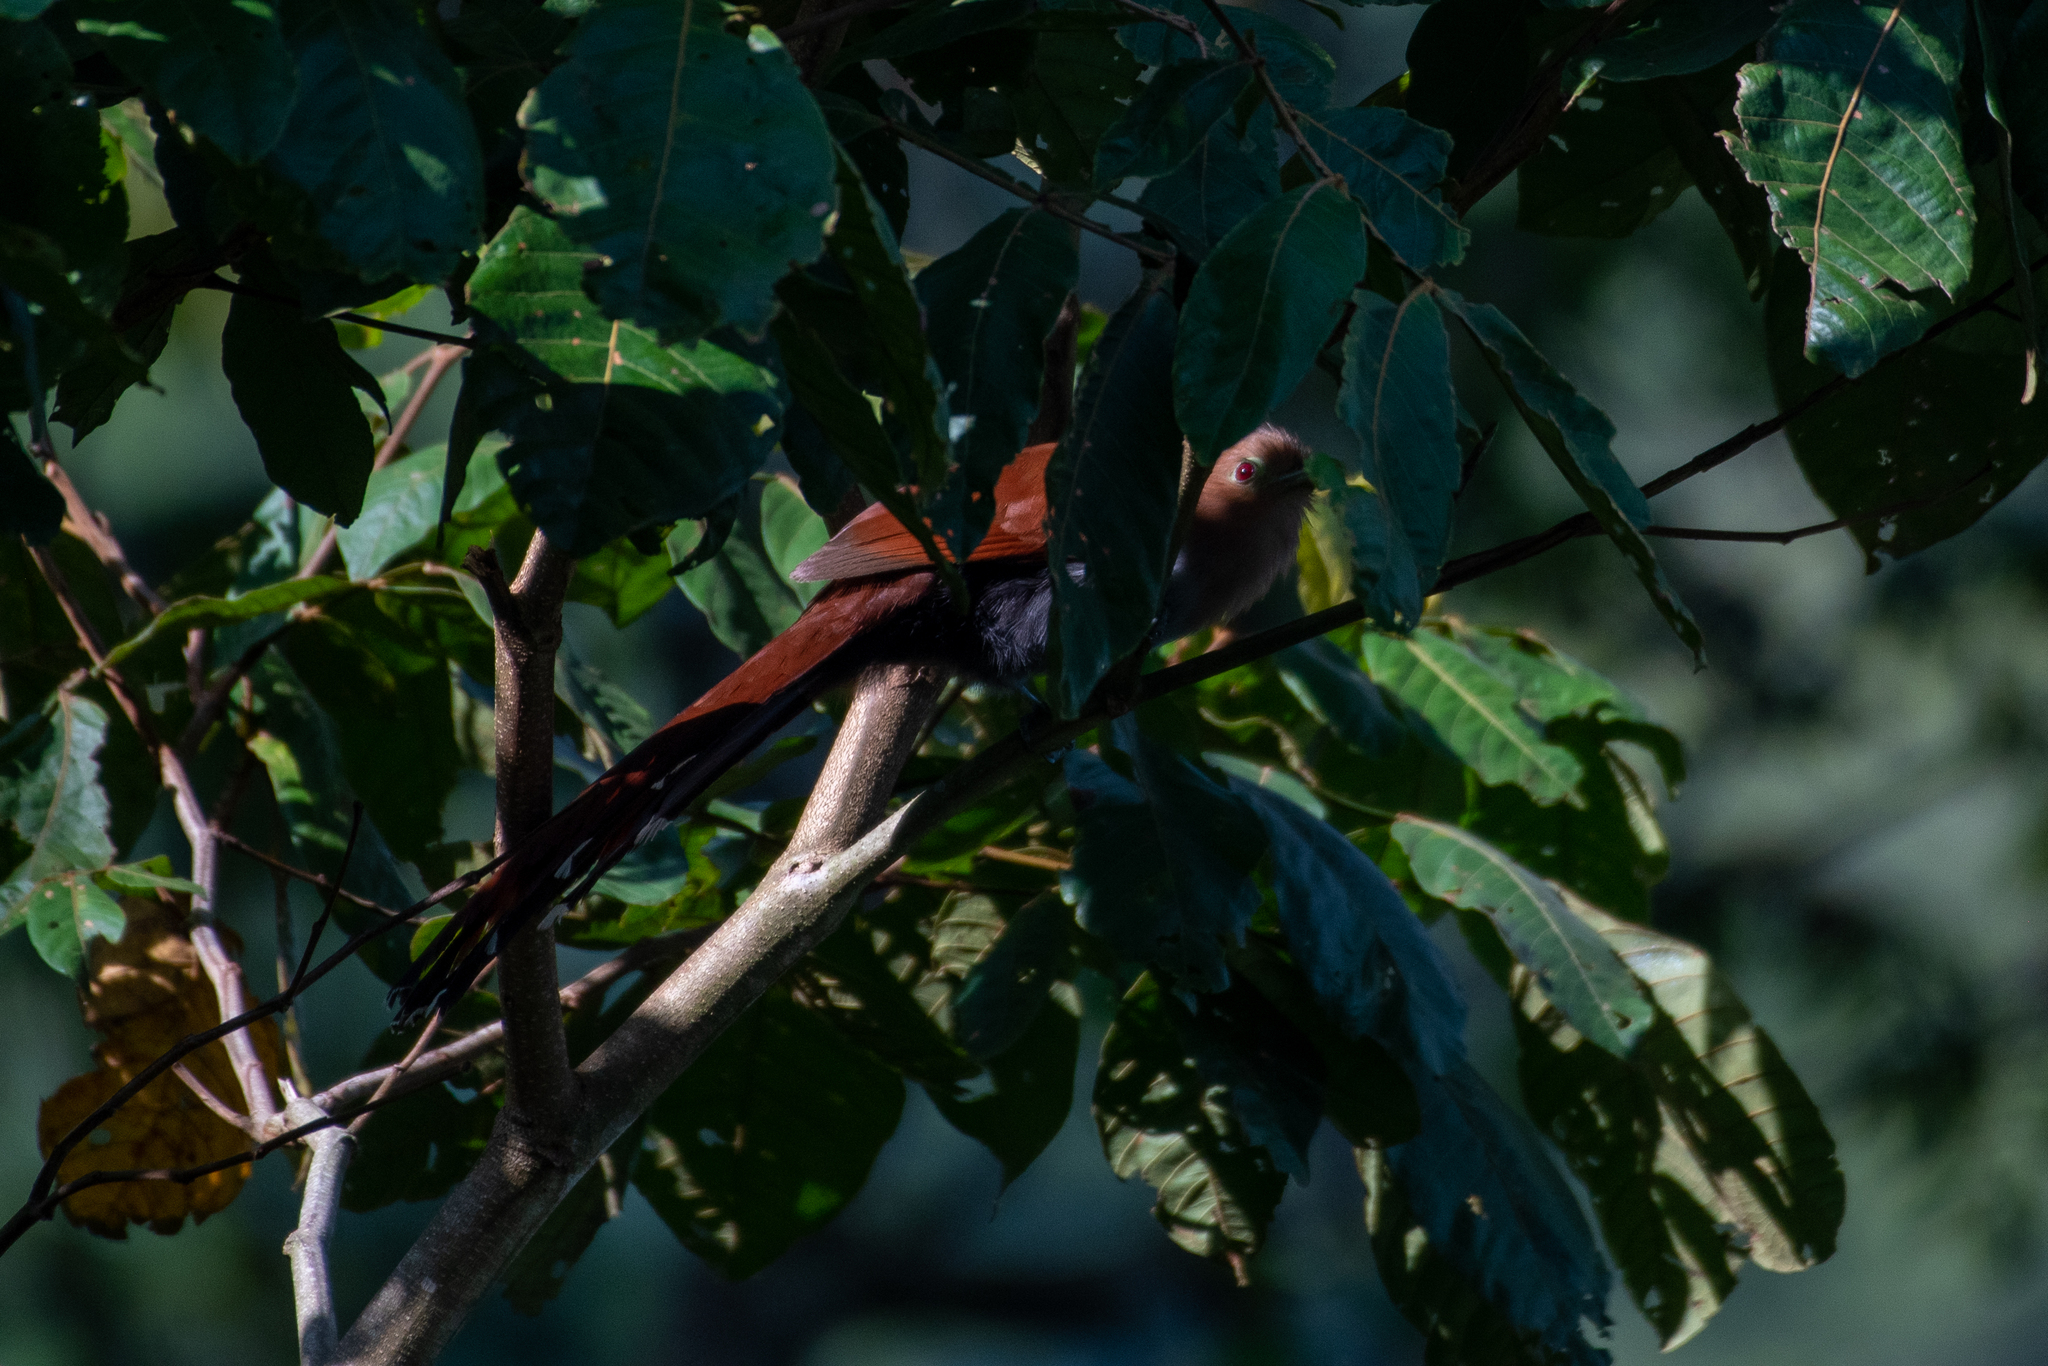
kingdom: Animalia
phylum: Chordata
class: Aves
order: Cuculiformes
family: Cuculidae
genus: Piaya
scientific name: Piaya cayana
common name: Squirrel cuckoo
